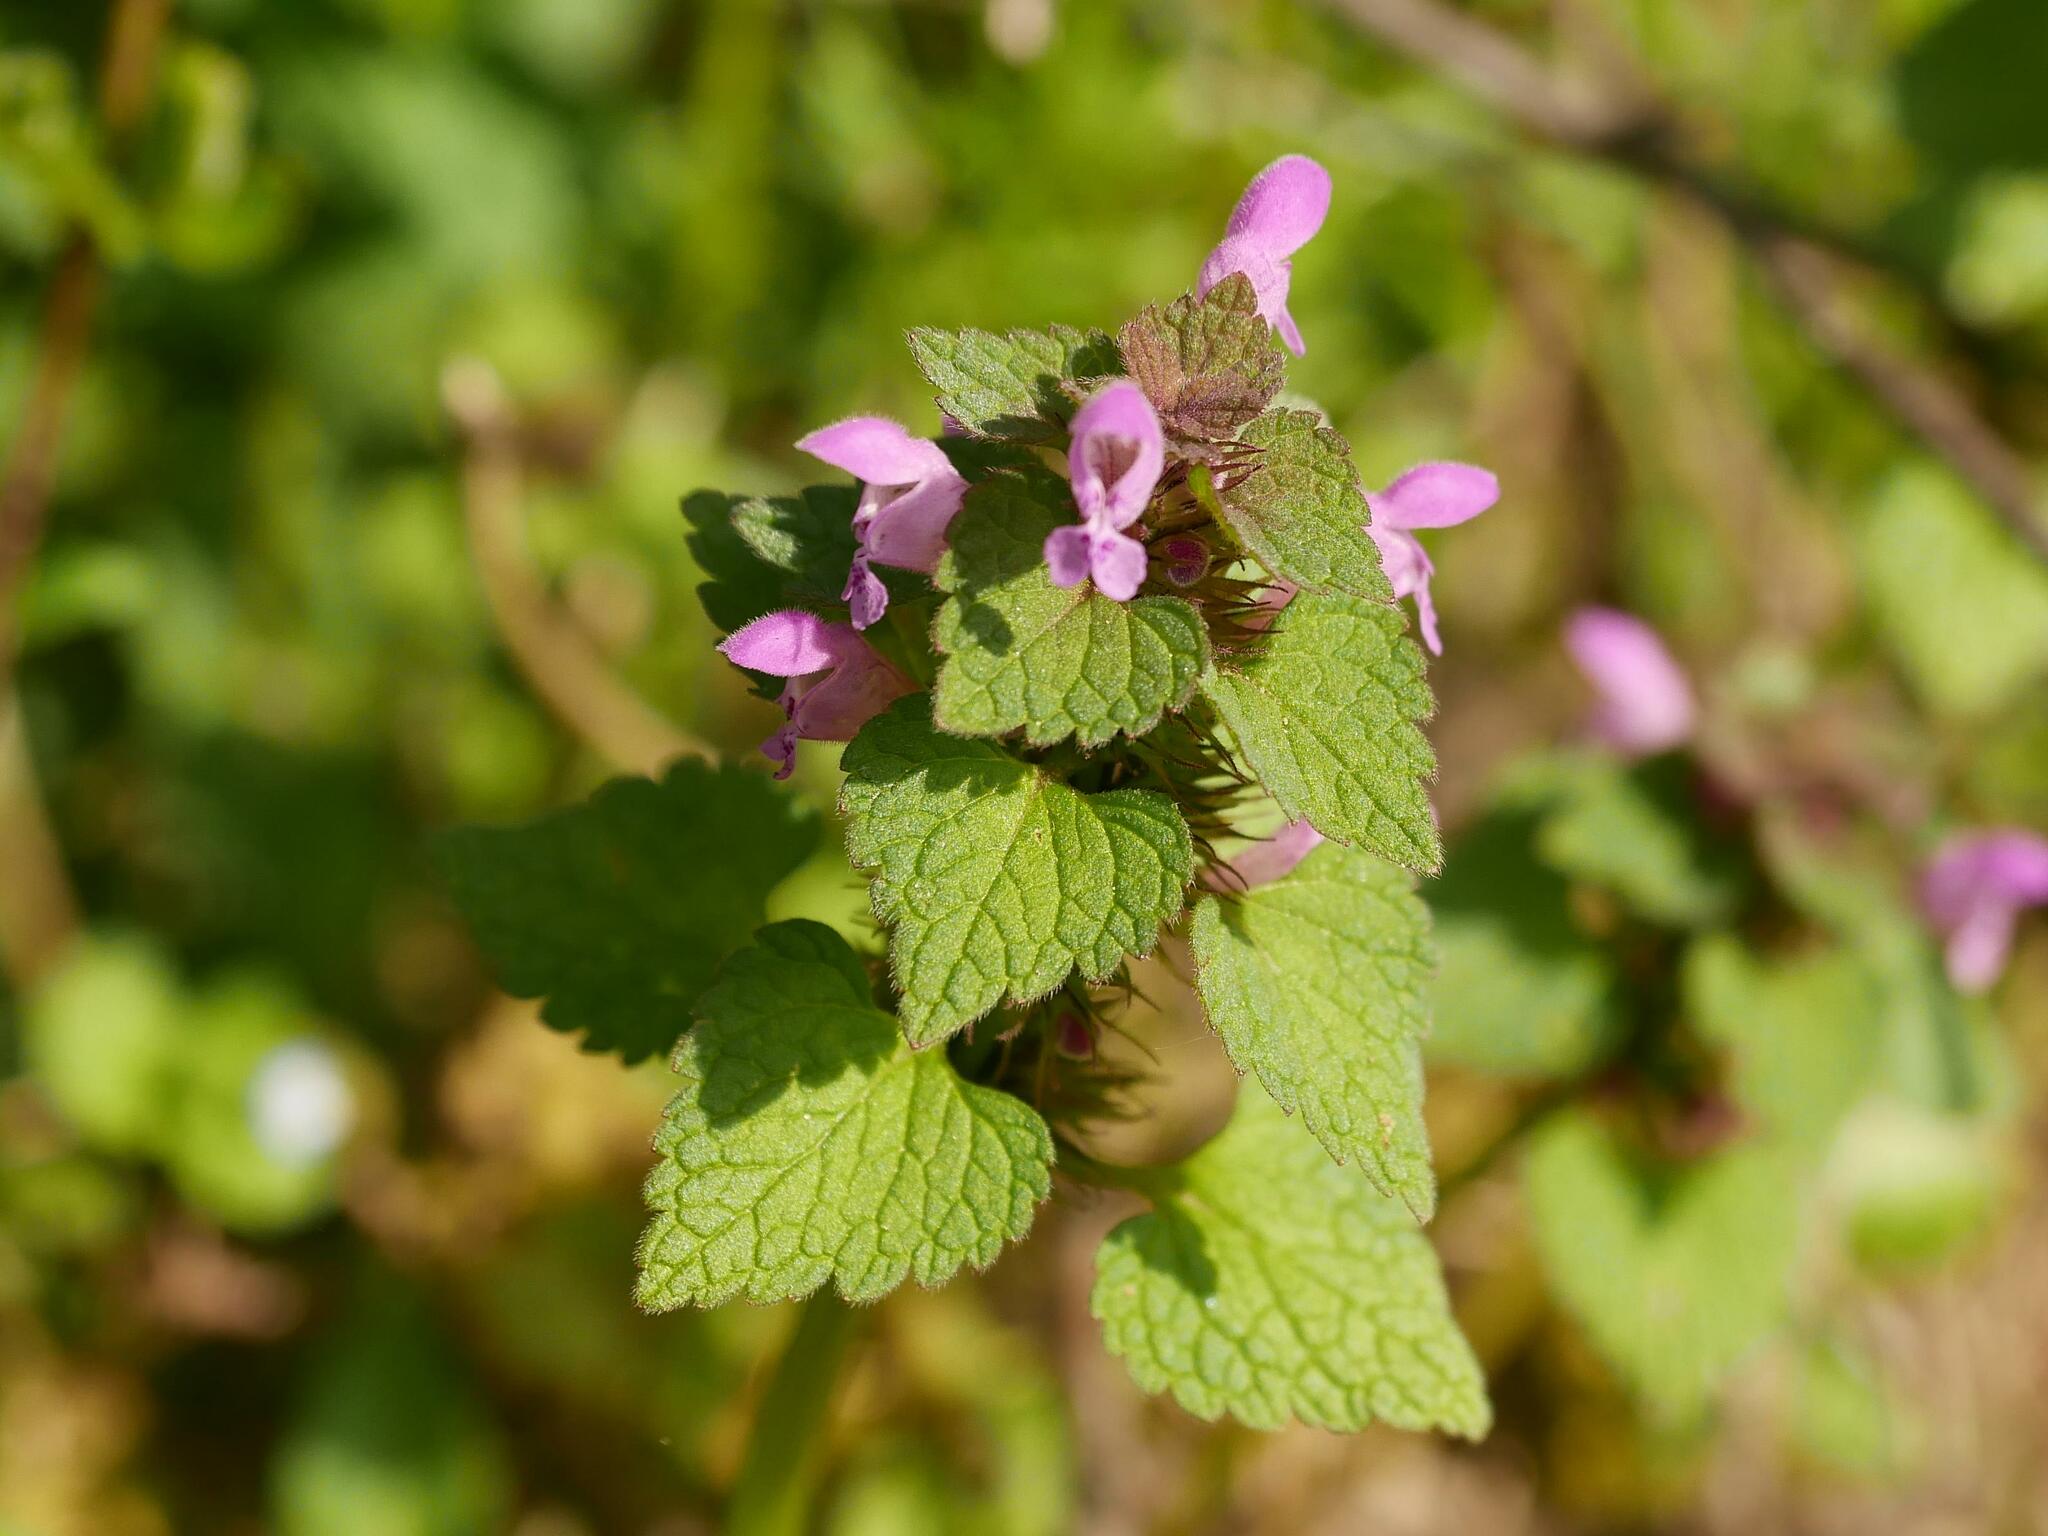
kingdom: Plantae
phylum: Tracheophyta
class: Magnoliopsida
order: Lamiales
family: Lamiaceae
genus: Lamium
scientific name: Lamium purpureum
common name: Red dead-nettle
